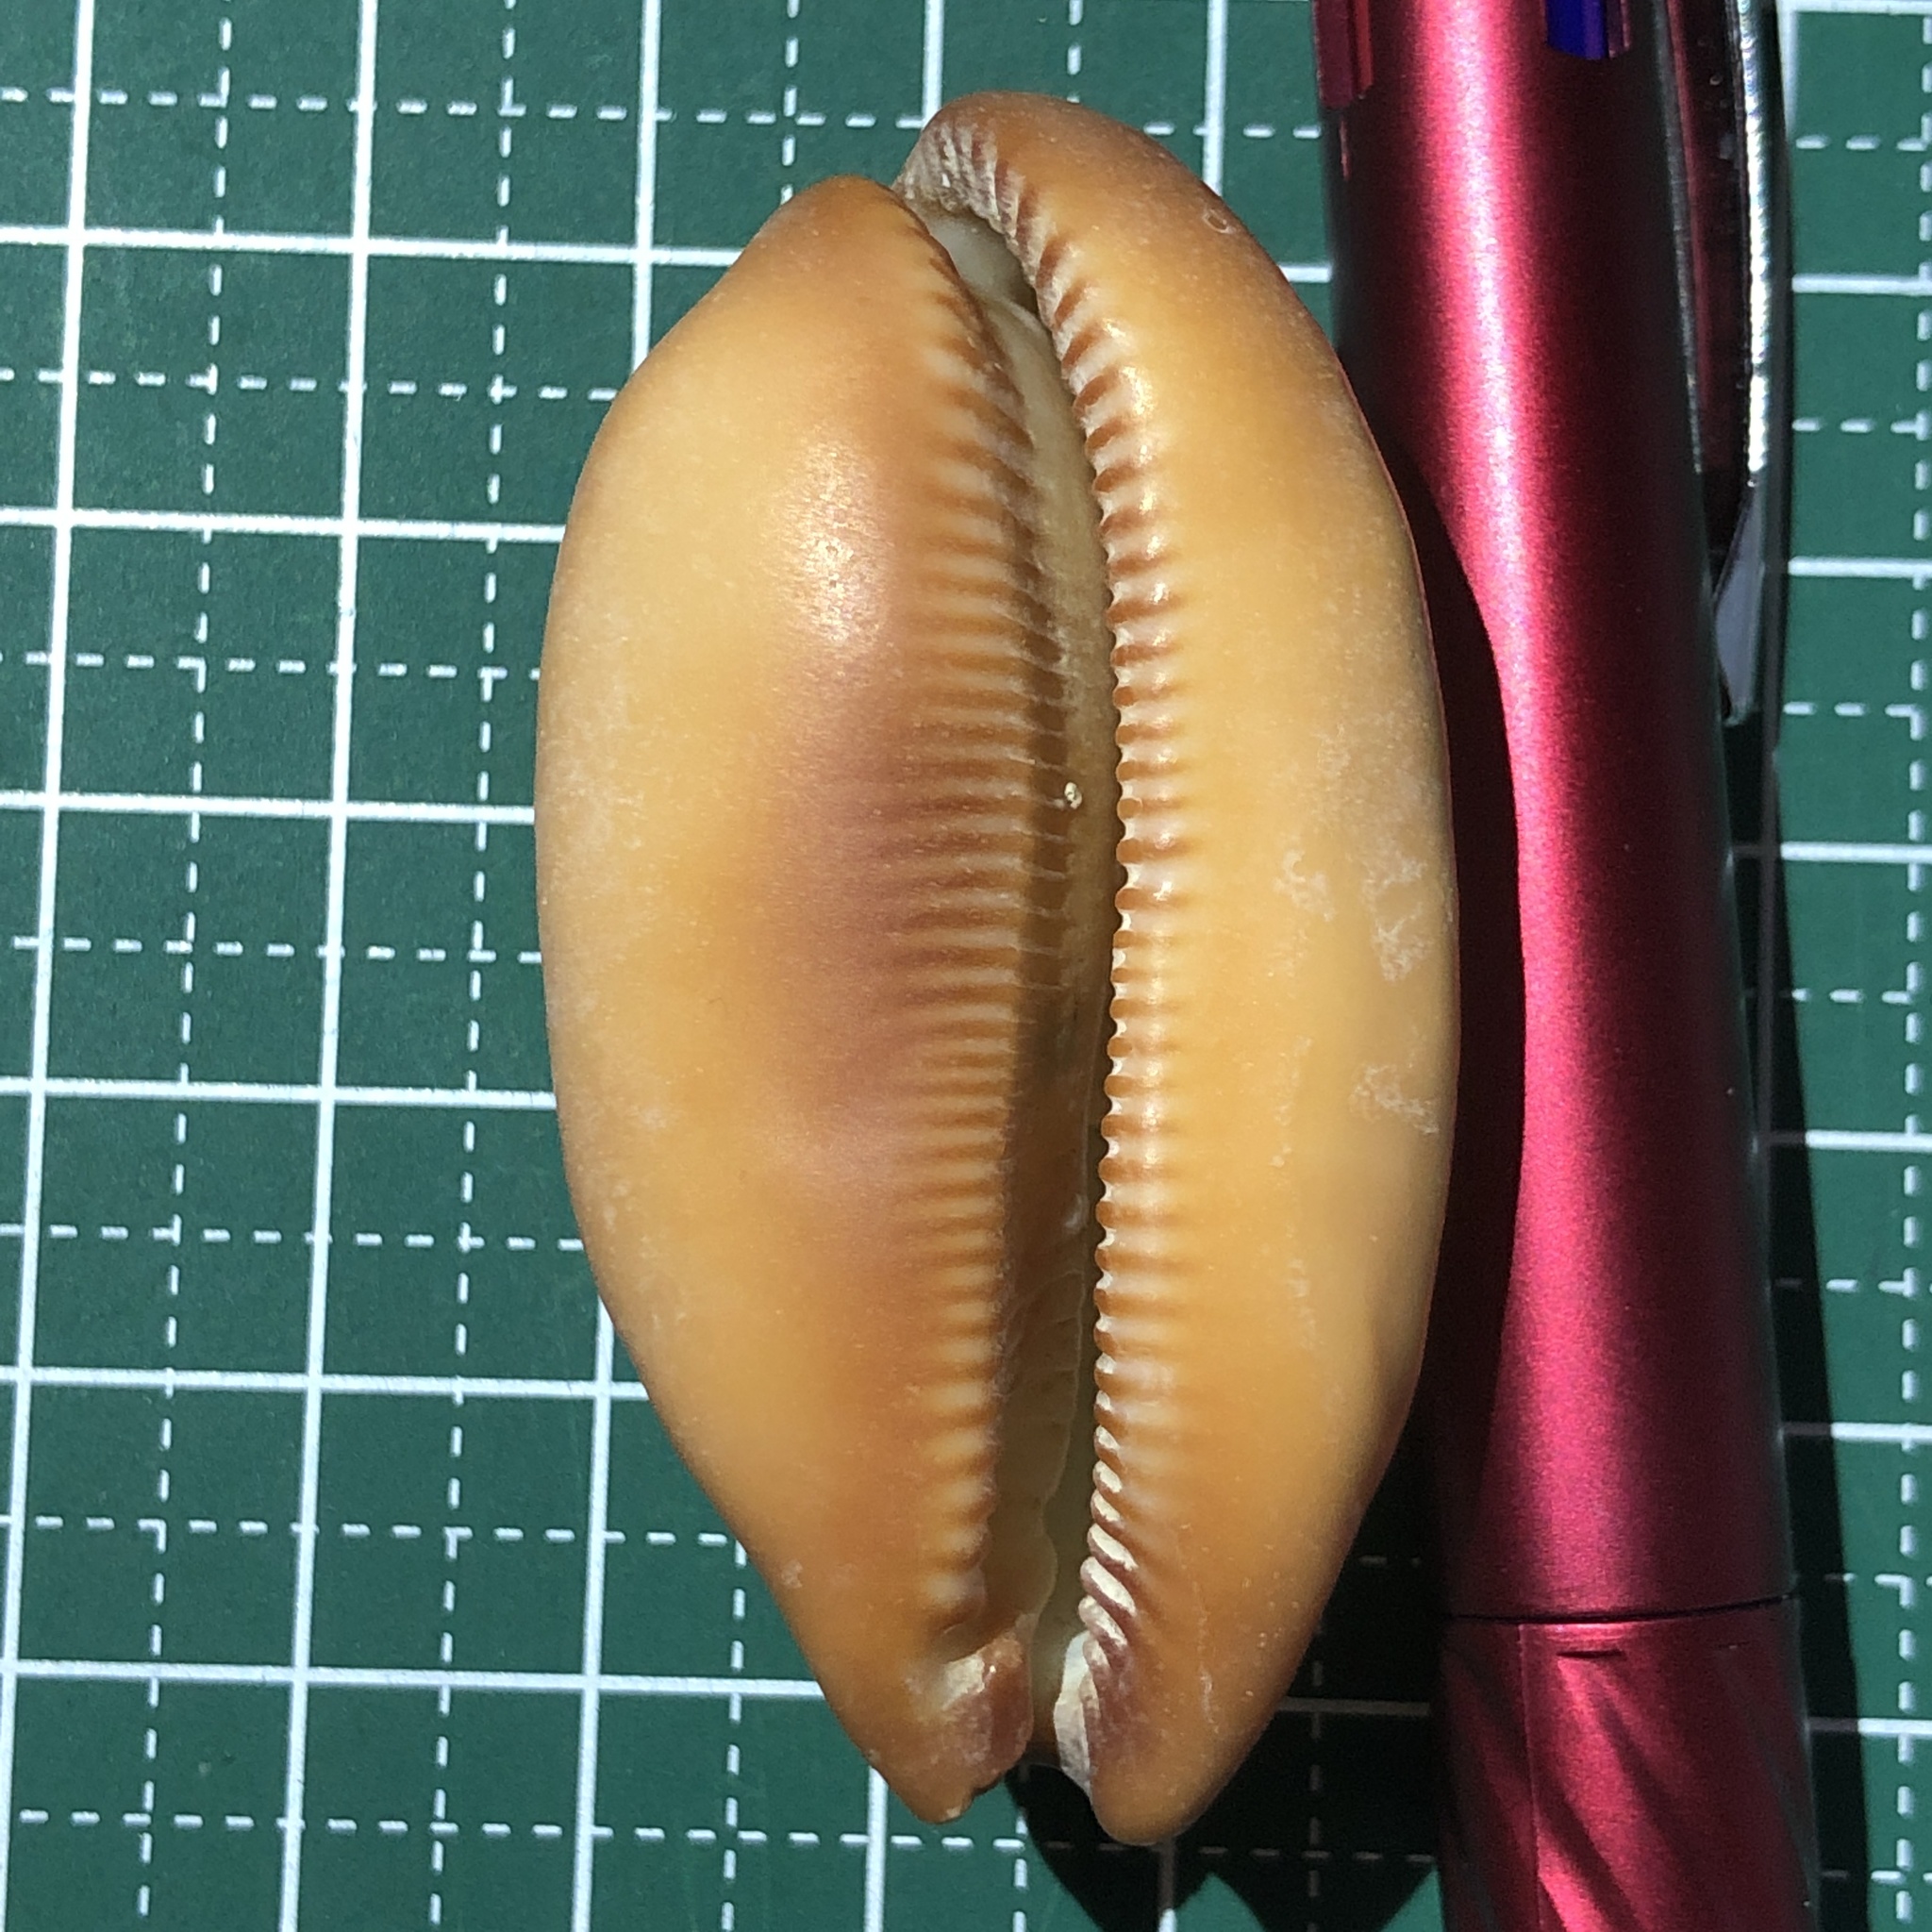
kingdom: Animalia
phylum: Mollusca
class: Gastropoda
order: Littorinimorpha
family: Cypraeidae
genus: Talparia
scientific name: Talparia talpa
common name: Mole cowrie
